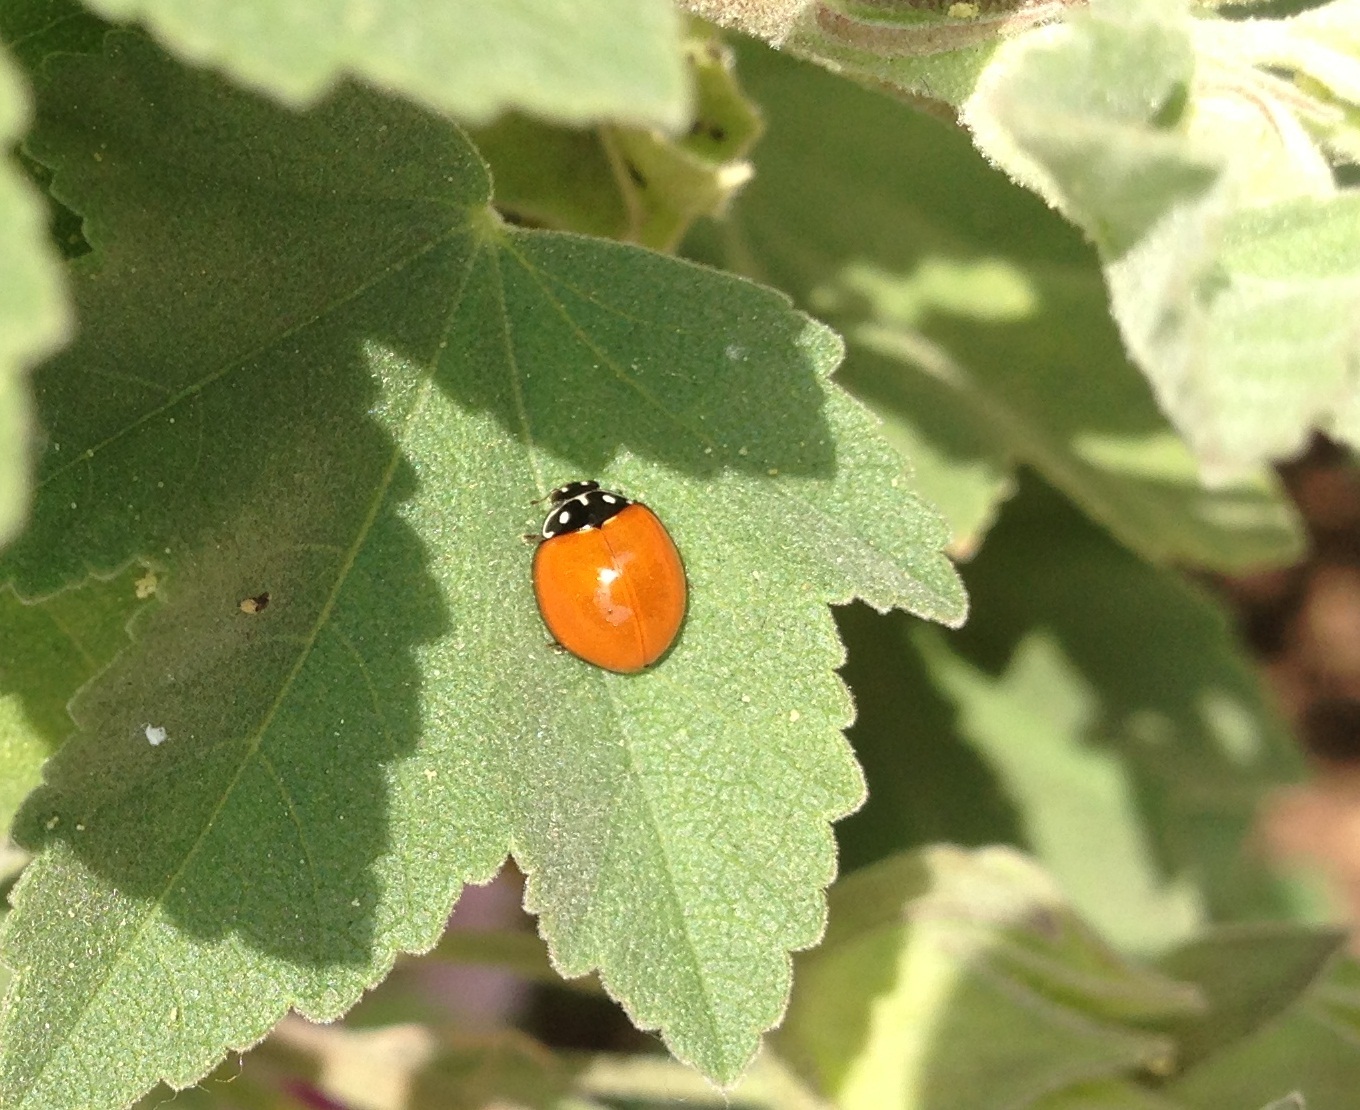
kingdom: Animalia
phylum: Arthropoda
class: Insecta
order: Coleoptera
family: Coccinellidae
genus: Cycloneda
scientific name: Cycloneda sanguinea
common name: Ladybird beetle
